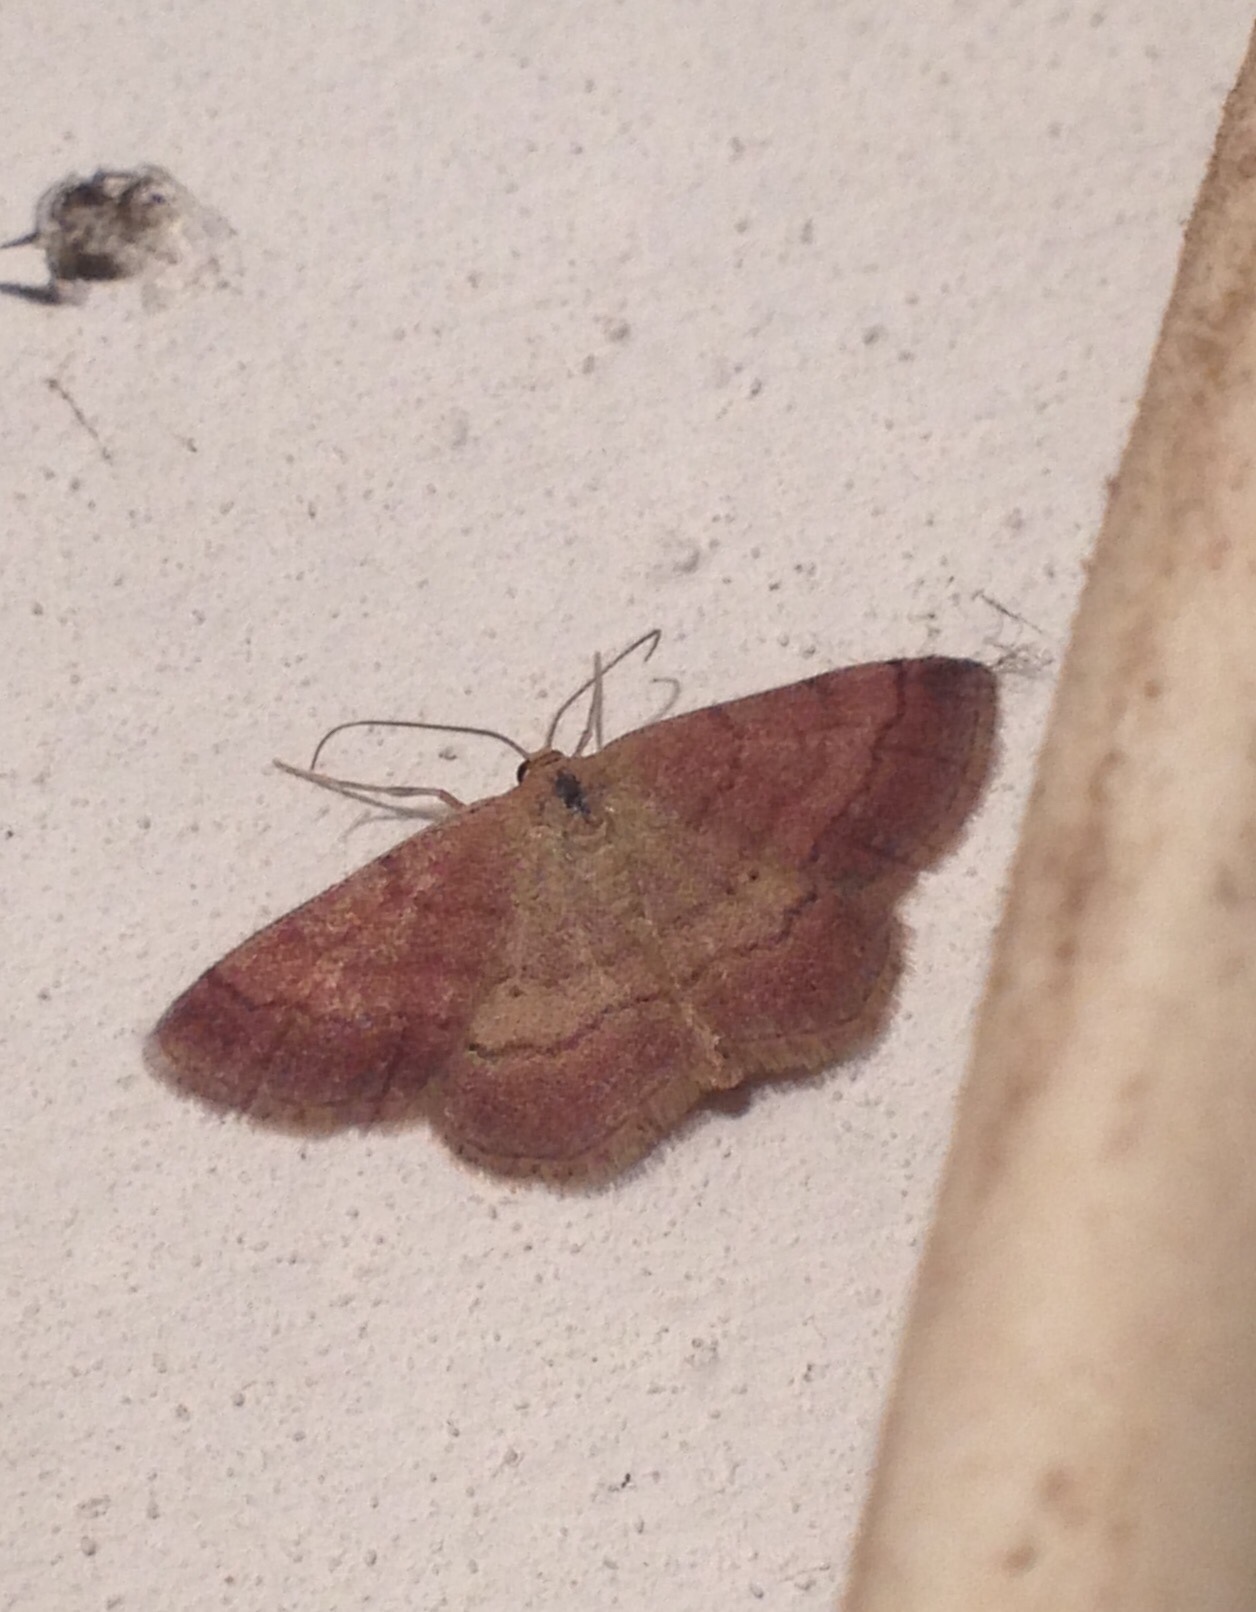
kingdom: Animalia
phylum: Arthropoda
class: Insecta
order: Lepidoptera
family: Geometridae
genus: Scopula
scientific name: Scopula rubiginata
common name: Tawny wave
